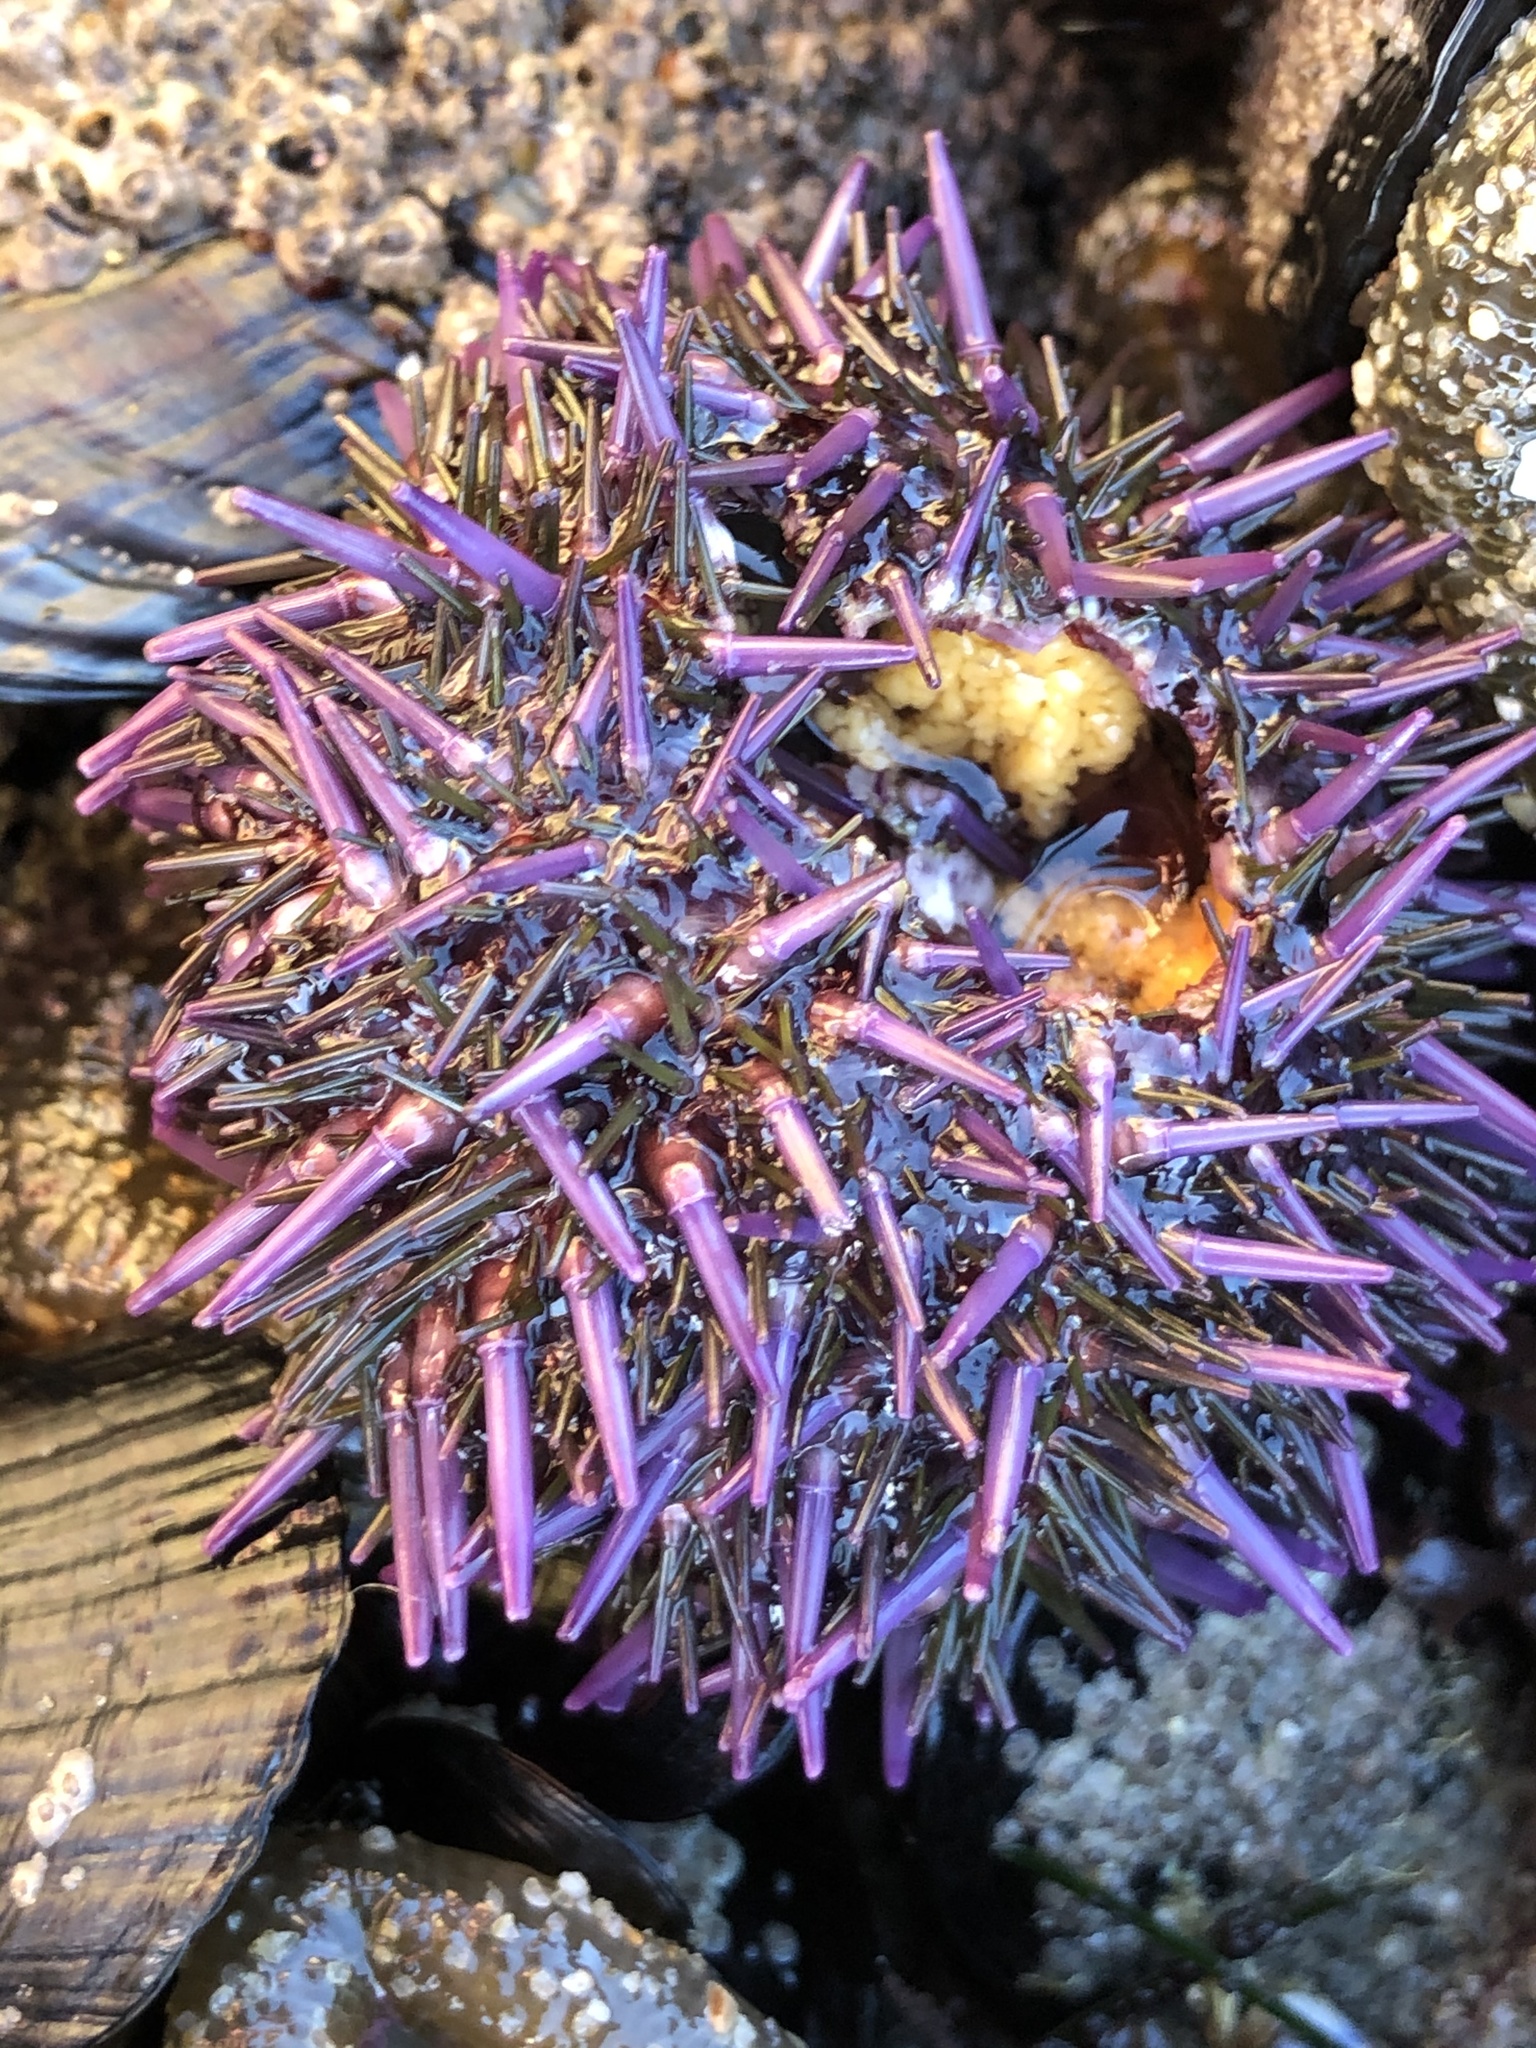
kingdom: Animalia
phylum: Echinodermata
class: Echinoidea
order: Camarodonta
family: Strongylocentrotidae
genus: Strongylocentrotus
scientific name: Strongylocentrotus purpuratus
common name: Purple sea urchin
